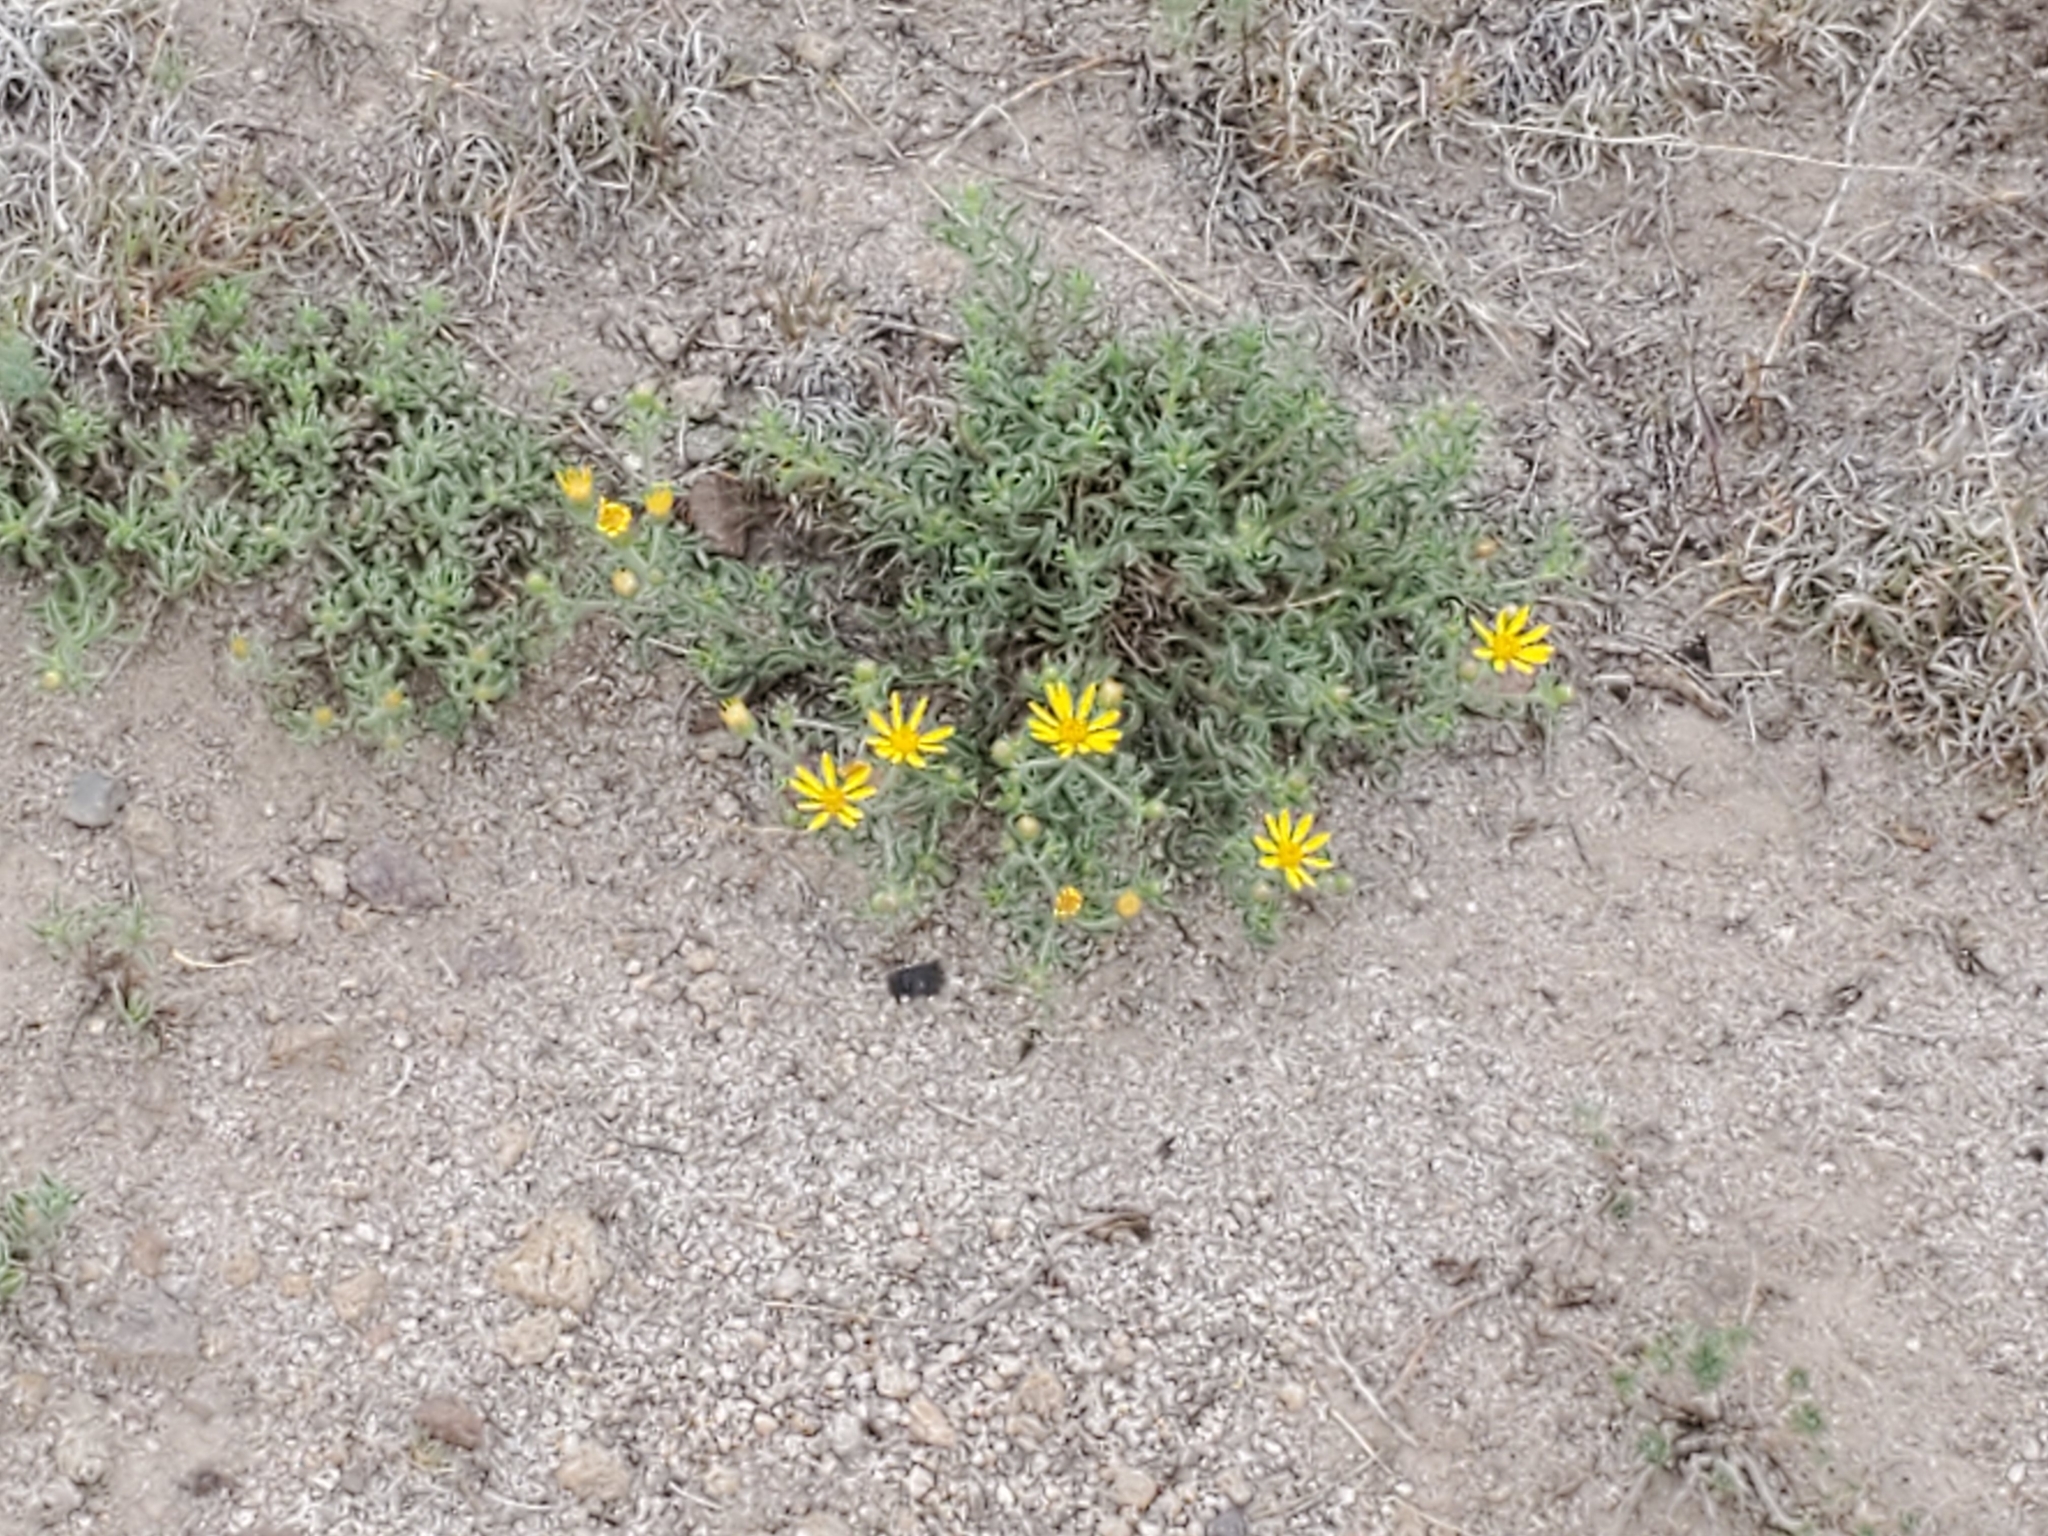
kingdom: Plantae
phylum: Tracheophyta
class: Magnoliopsida
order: Asterales
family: Asteraceae
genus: Heterotheca
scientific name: Heterotheca hirsutissima
